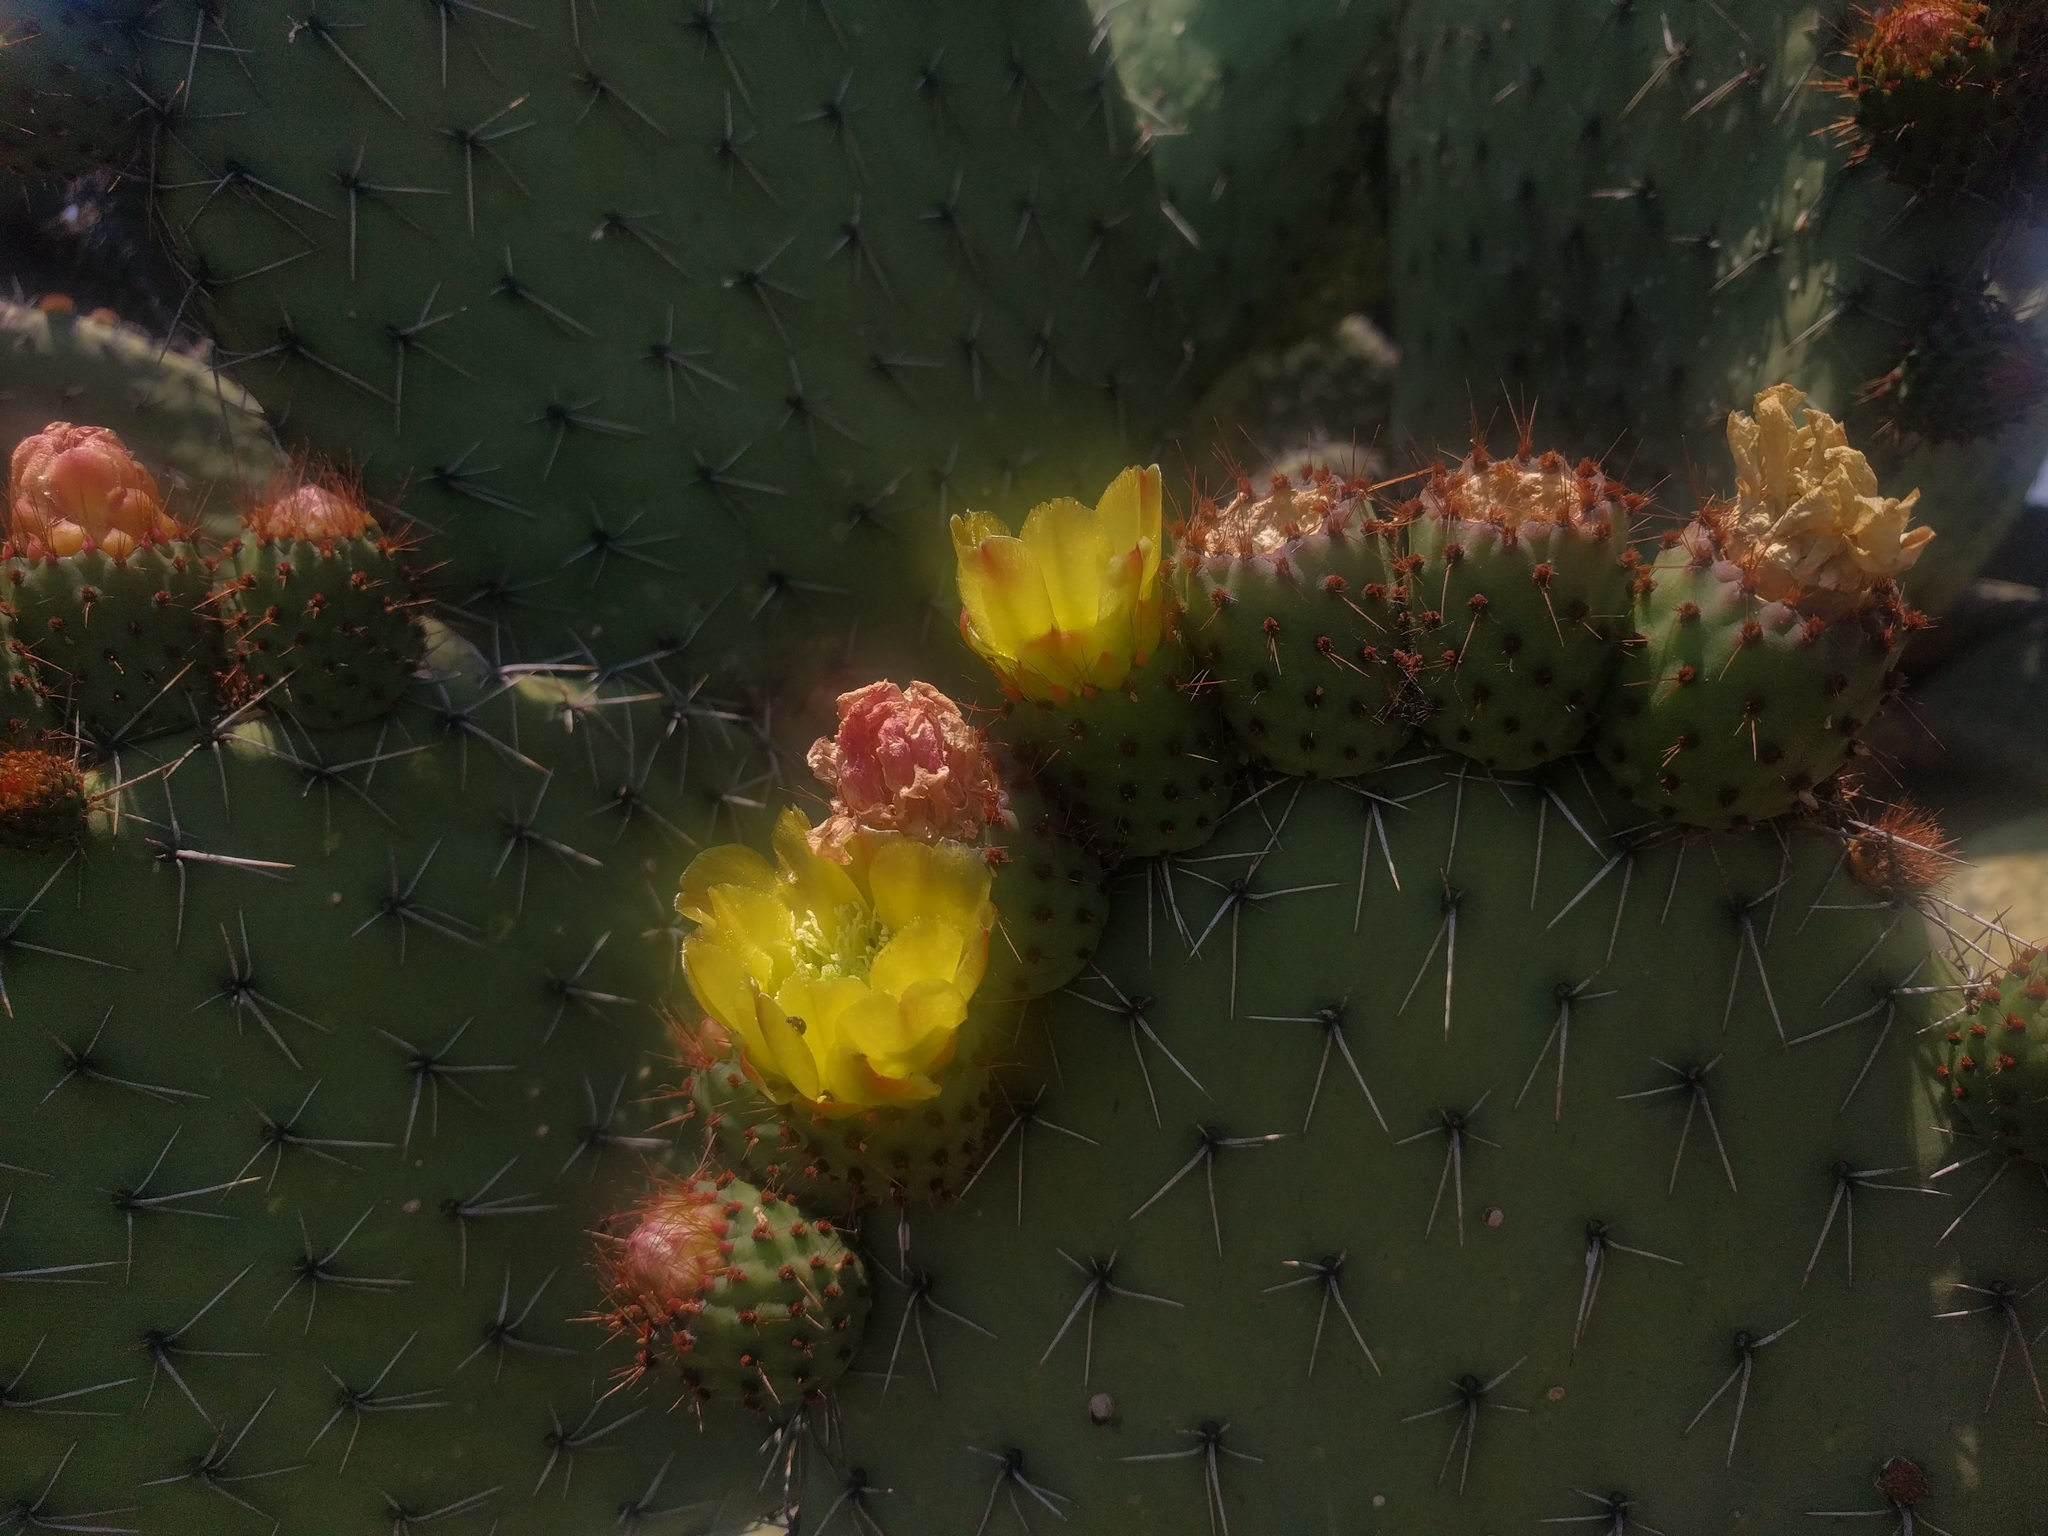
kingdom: Plantae
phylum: Tracheophyta
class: Magnoliopsida
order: Caryophyllales
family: Cactaceae
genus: Opuntia
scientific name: Opuntia streptacantha
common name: Gracemere-pear
